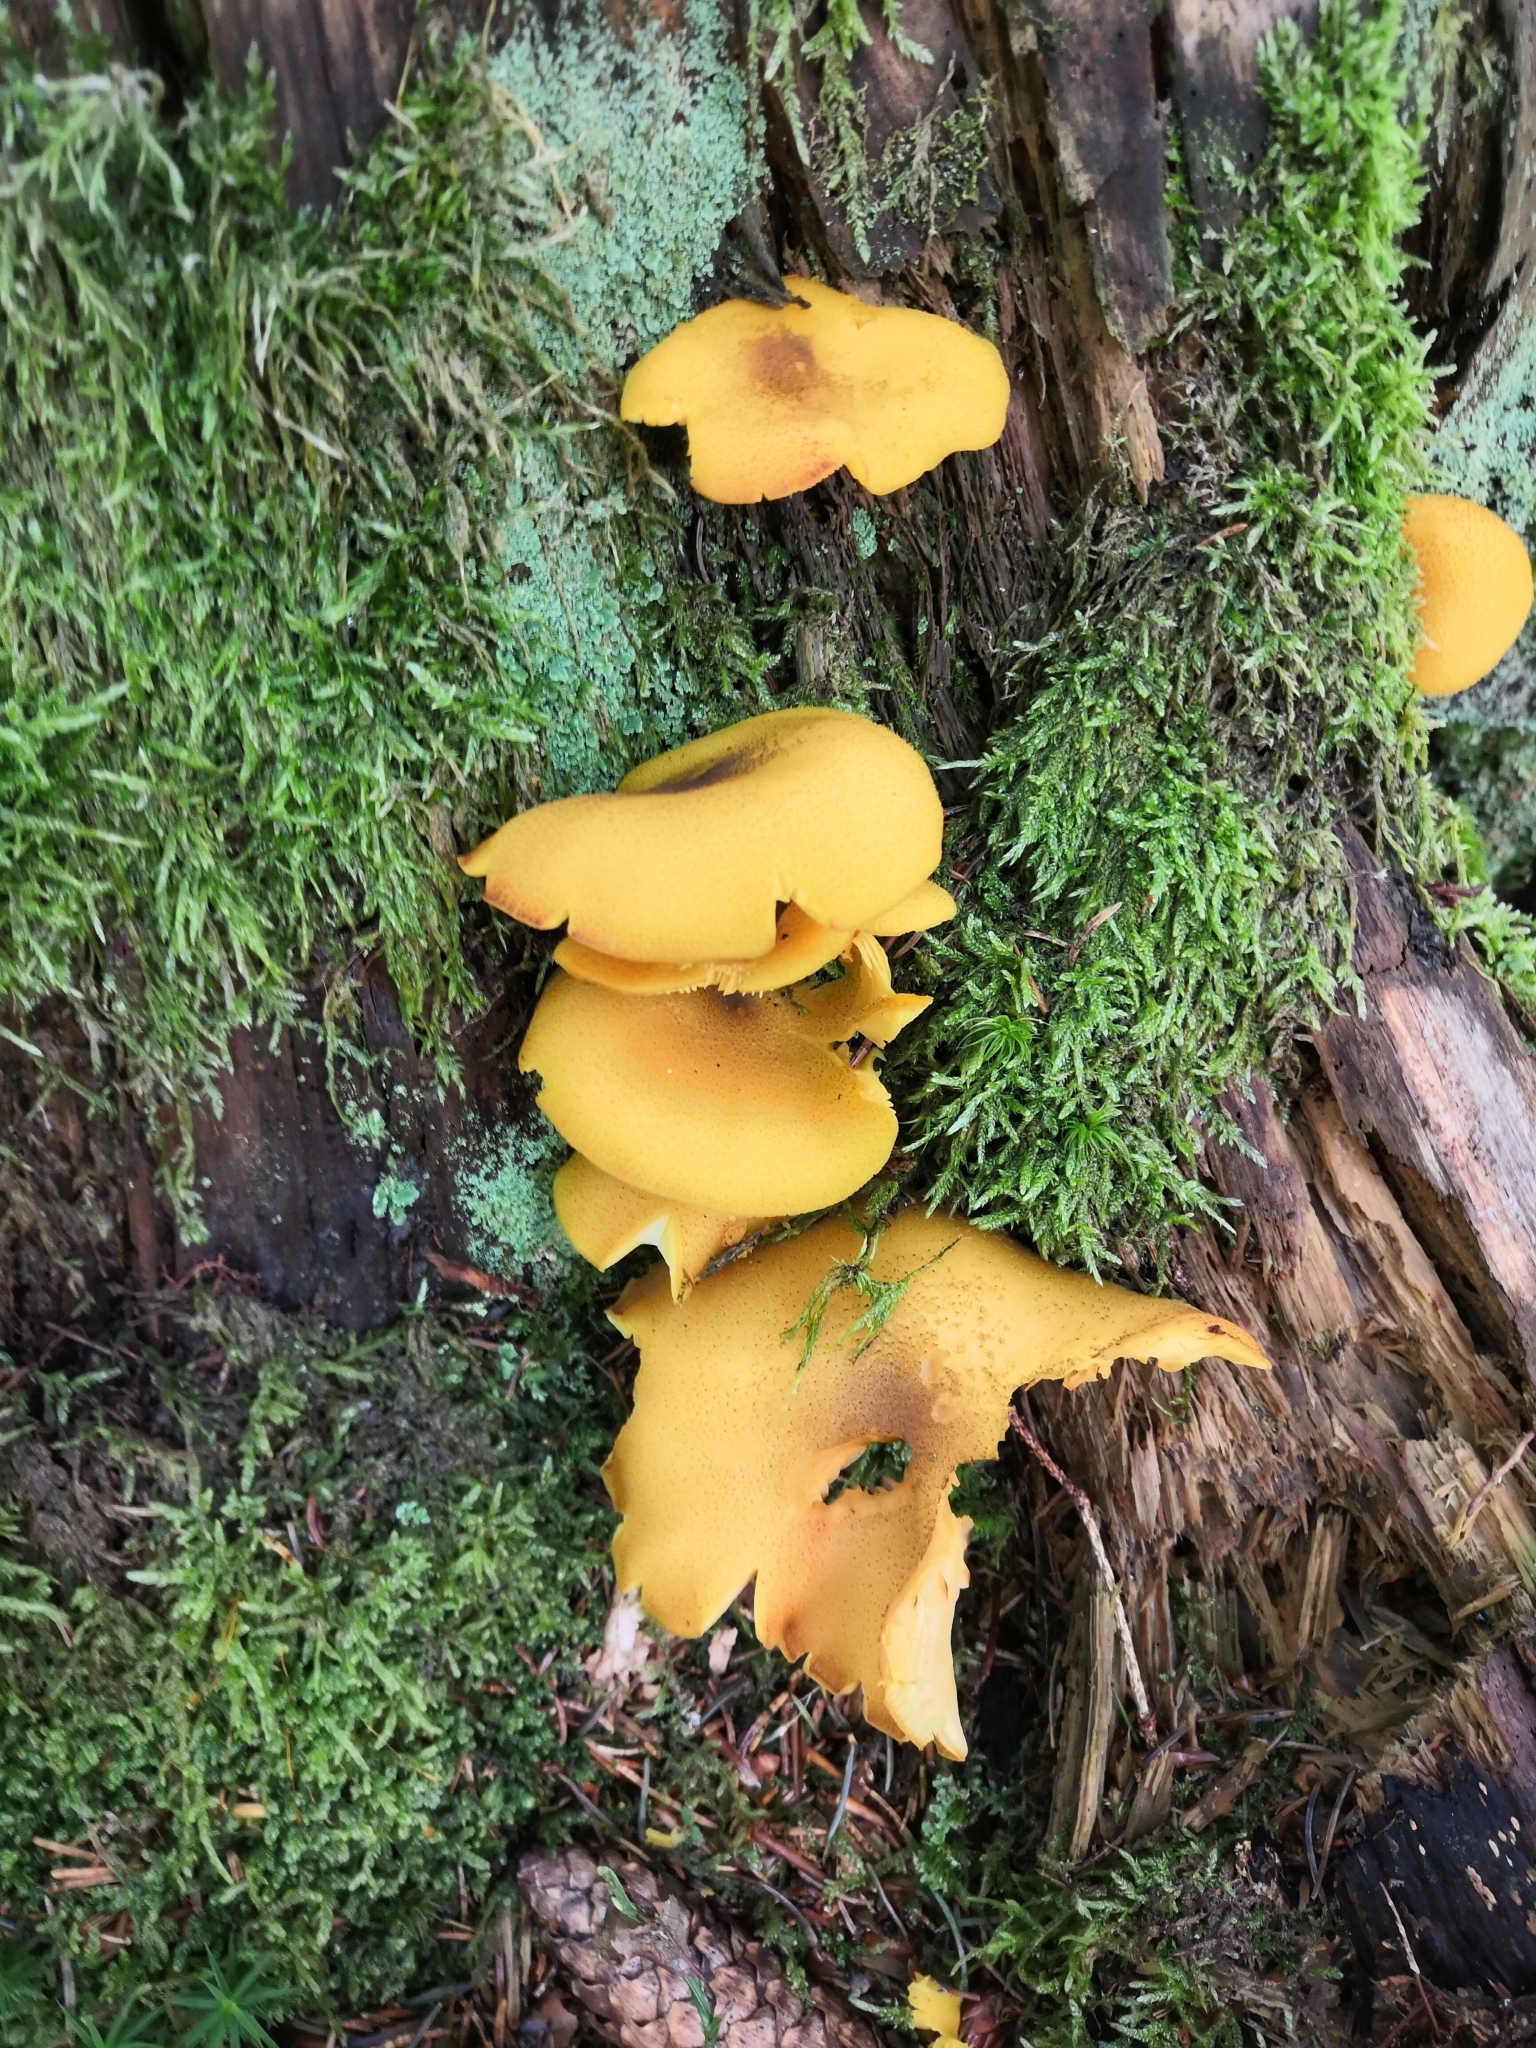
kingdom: Fungi
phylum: Basidiomycota
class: Agaricomycetes
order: Agaricales
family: Tricholomataceae
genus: Tricholomopsis
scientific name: Tricholomopsis decora
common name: Prunes and custard
